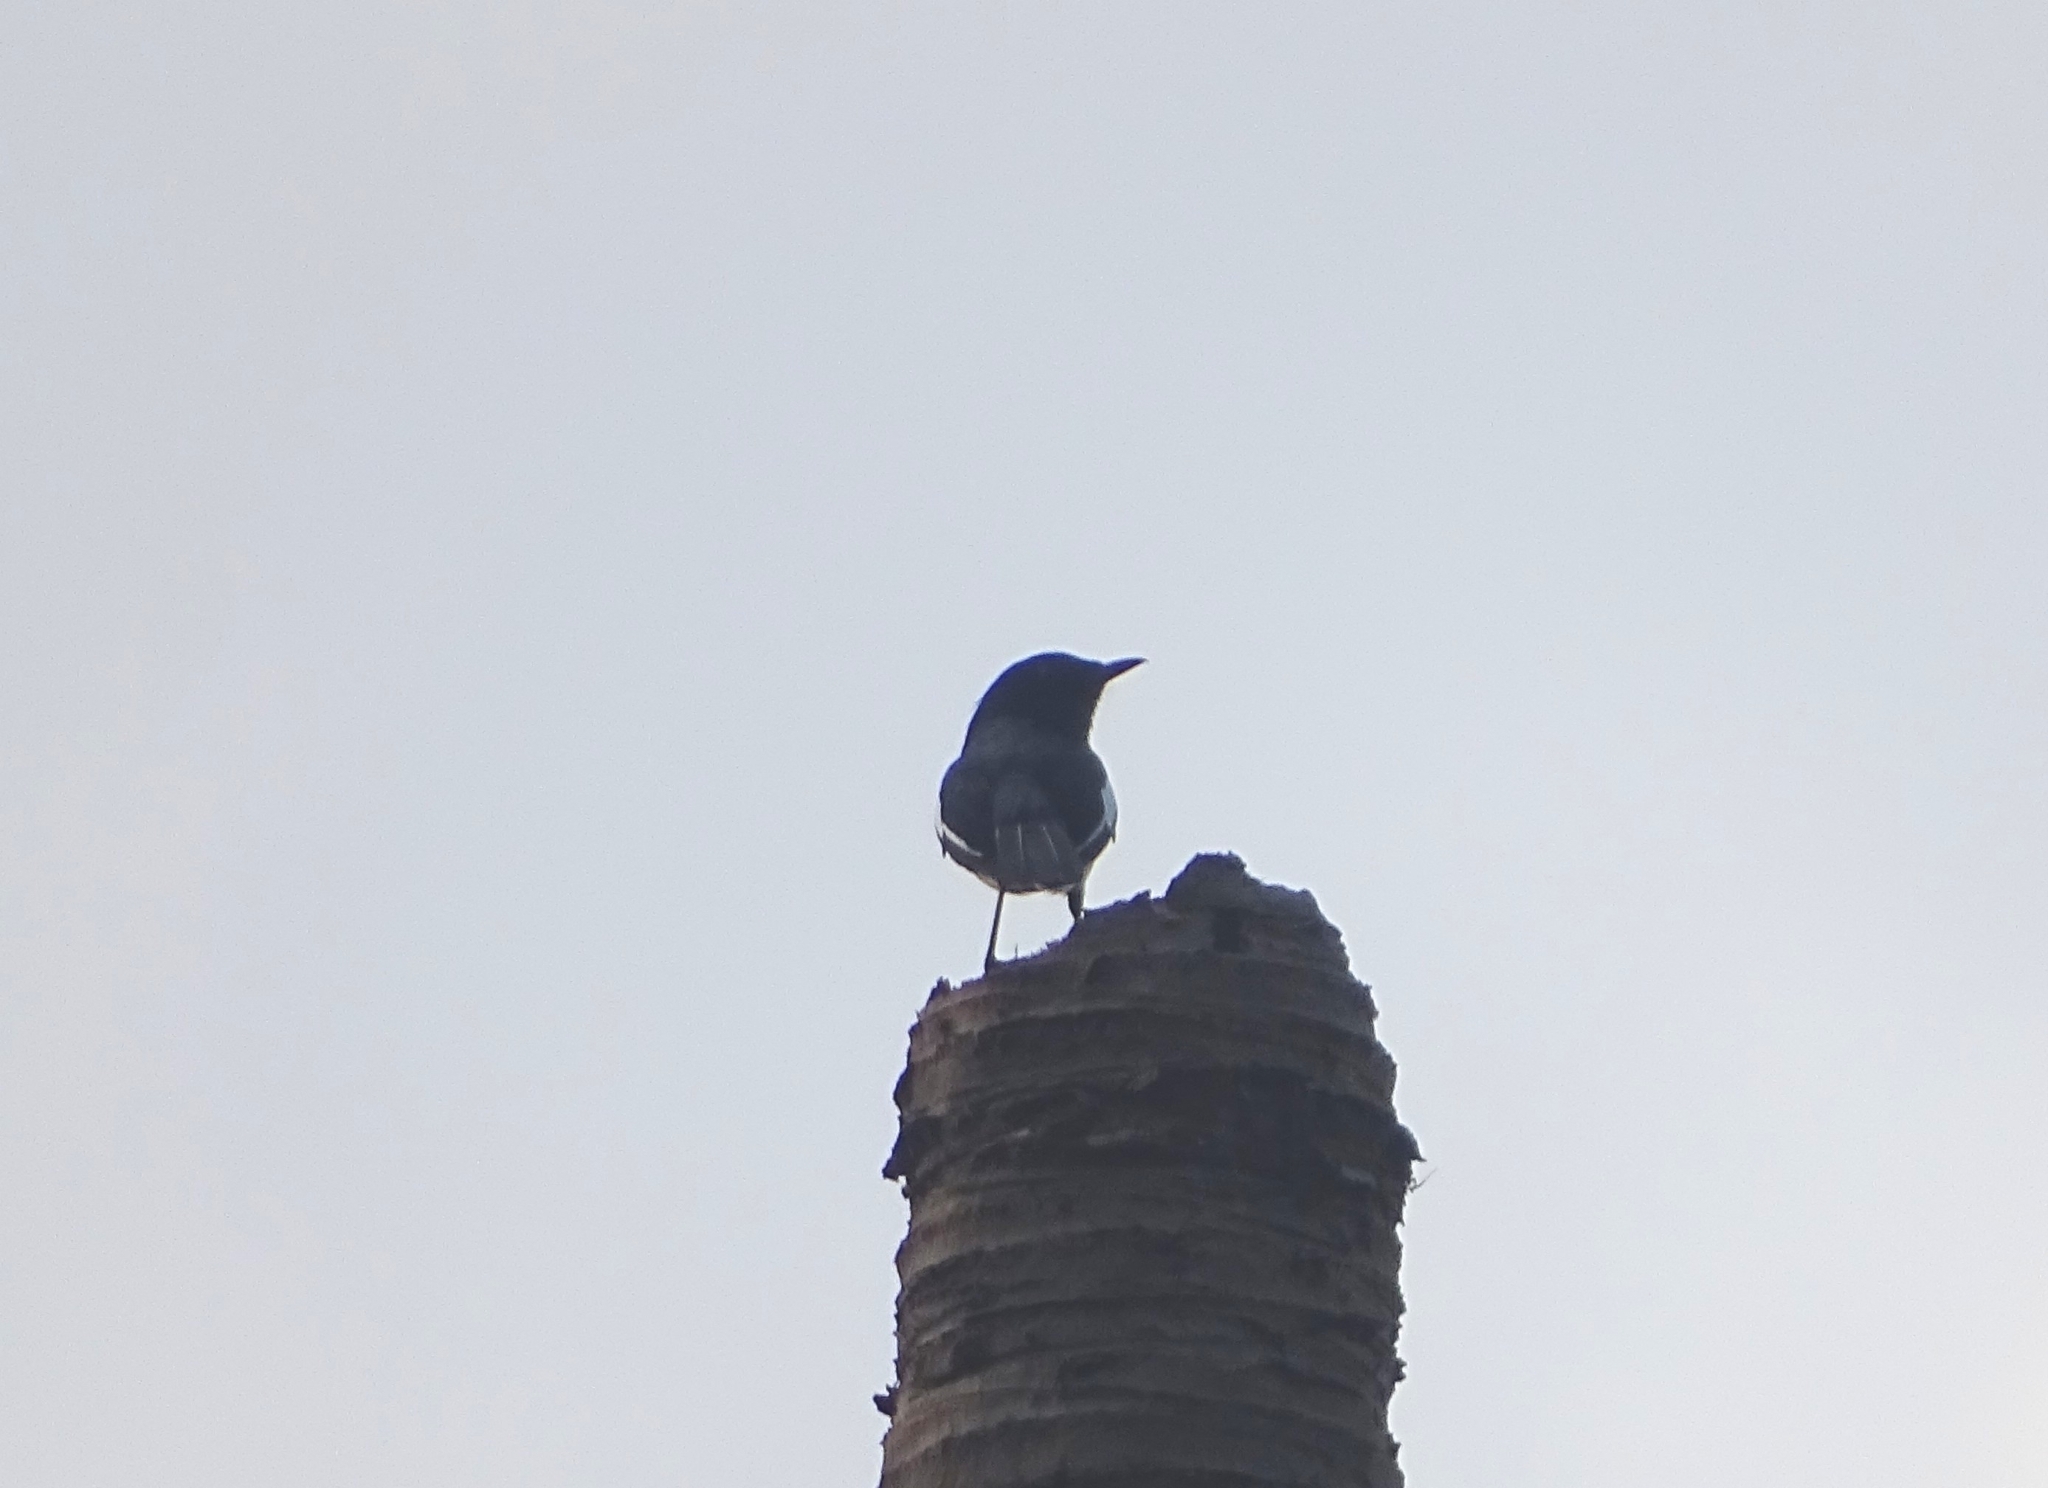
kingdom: Animalia
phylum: Chordata
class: Aves
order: Passeriformes
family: Muscicapidae
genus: Copsychus
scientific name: Copsychus saularis
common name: Oriental magpie-robin
